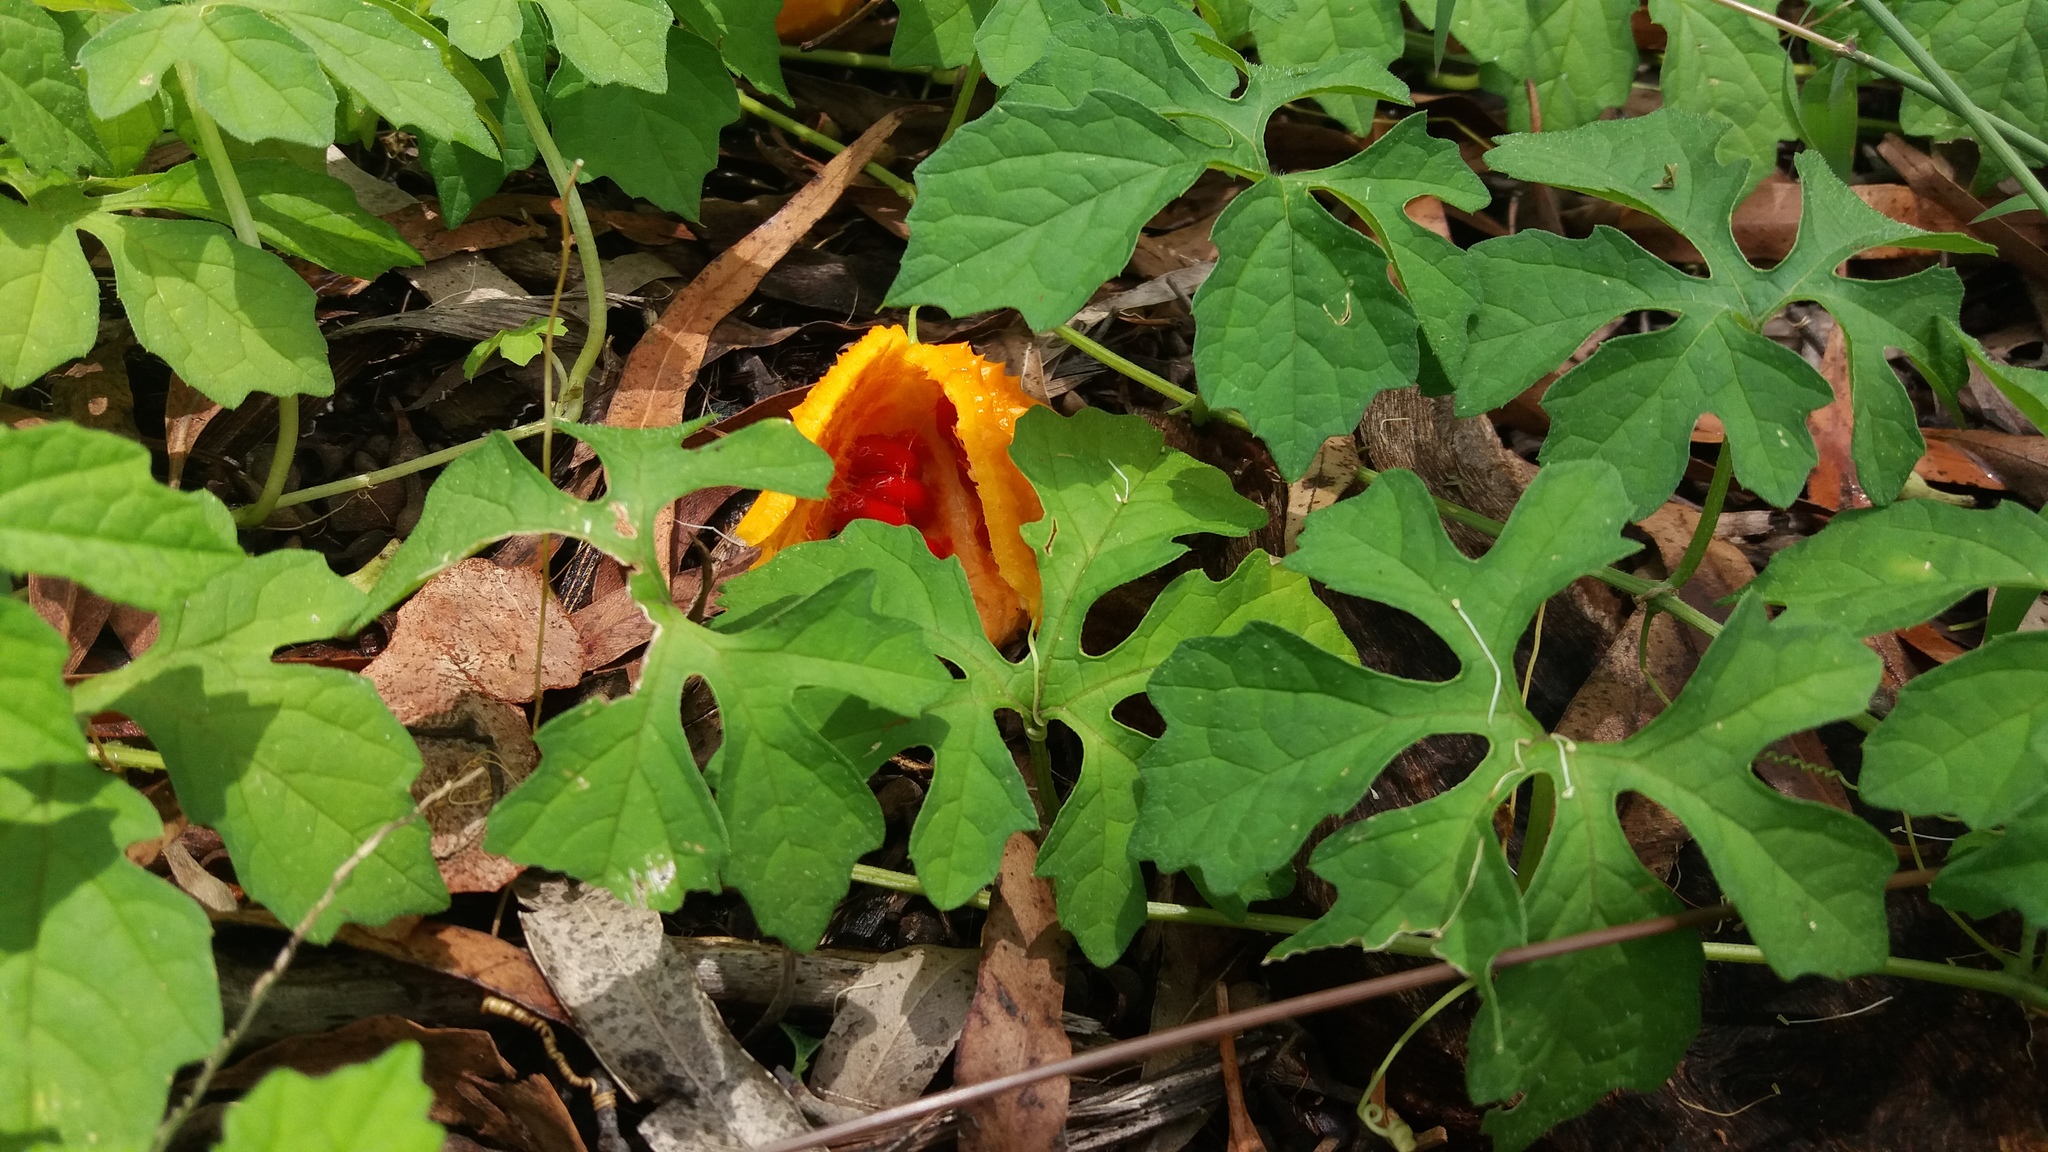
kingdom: Plantae
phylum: Tracheophyta
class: Magnoliopsida
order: Cucurbitales
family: Cucurbitaceae
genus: Momordica
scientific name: Momordica charantia
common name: Balsampear
